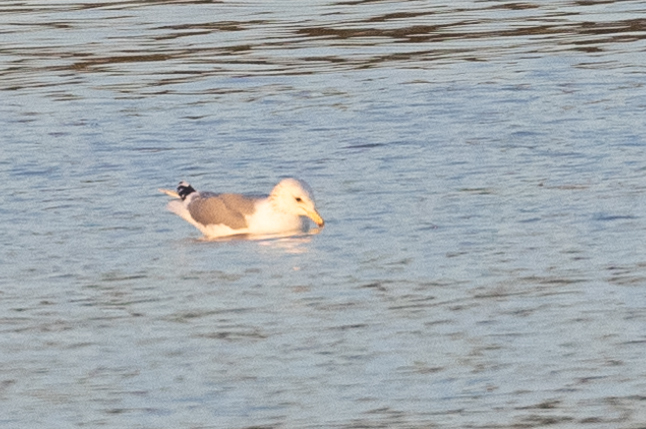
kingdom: Animalia
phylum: Chordata
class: Aves
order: Charadriiformes
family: Laridae
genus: Larus
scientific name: Larus californicus
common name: California gull
